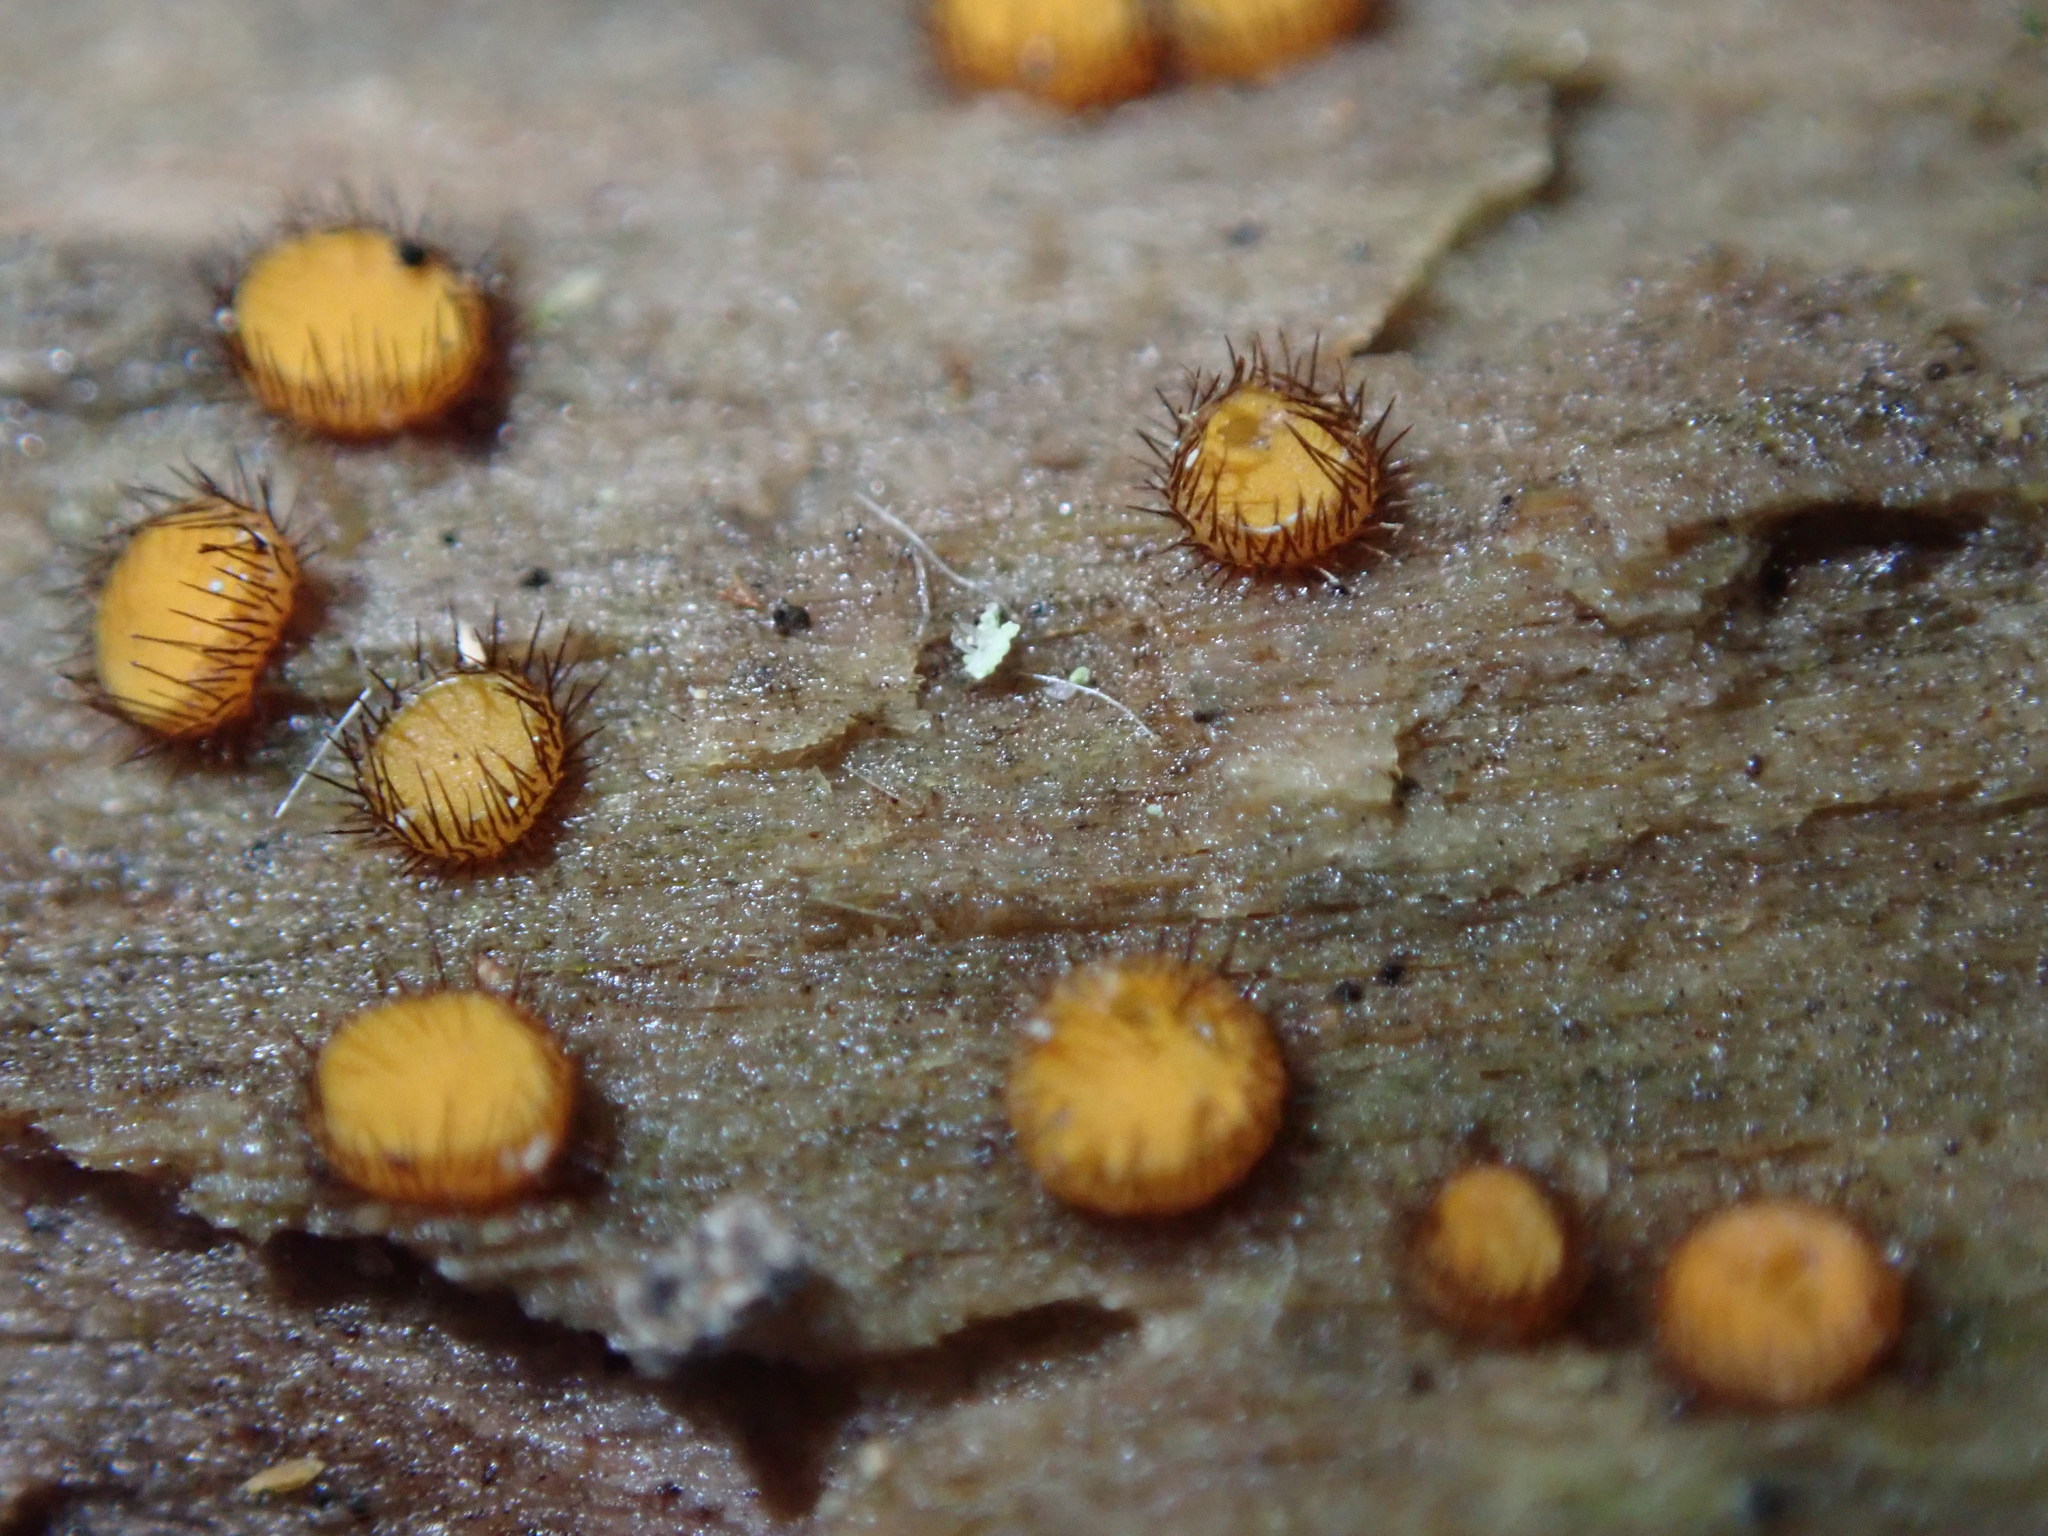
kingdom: Fungi
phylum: Ascomycota
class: Pezizomycetes
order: Pezizales
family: Pyronemataceae
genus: Scutellinia
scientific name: Scutellinia setosa
